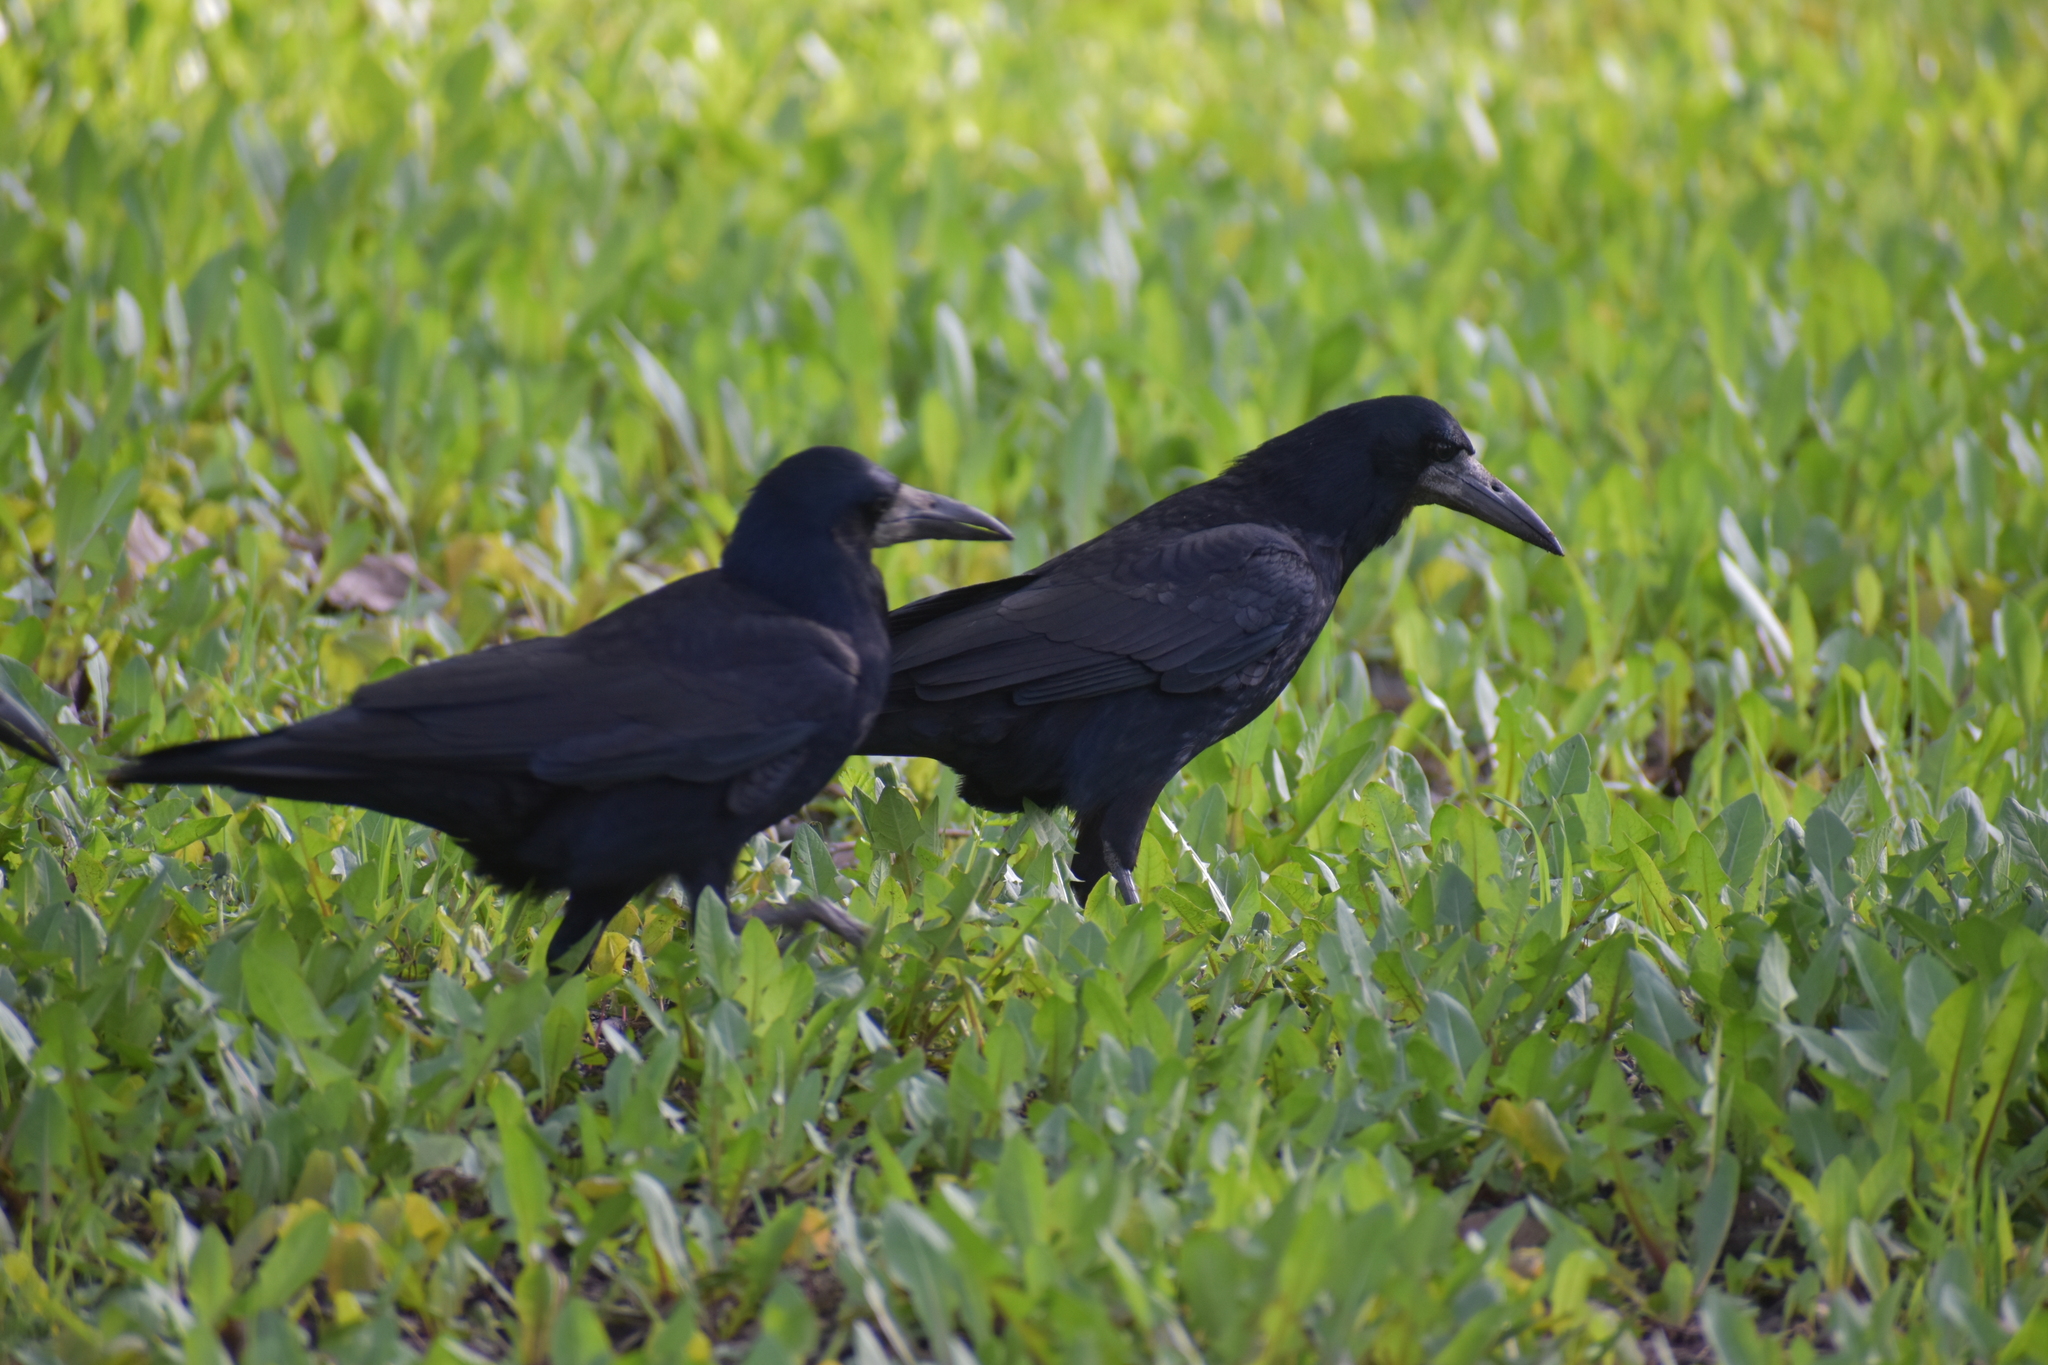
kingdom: Animalia
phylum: Chordata
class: Aves
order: Passeriformes
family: Corvidae
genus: Corvus
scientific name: Corvus frugilegus
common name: Rook
